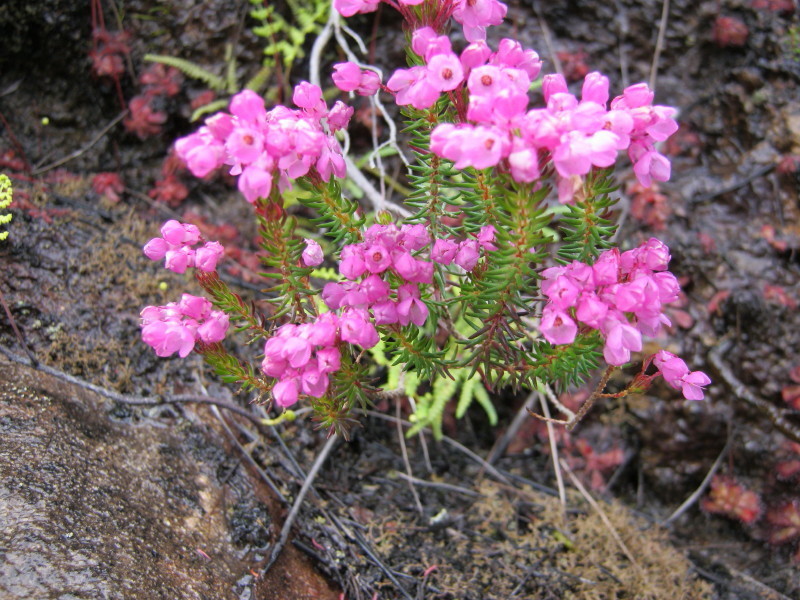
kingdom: Plantae
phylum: Tracheophyta
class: Magnoliopsida
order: Ericales
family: Ericaceae
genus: Erica
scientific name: Erica cubica
